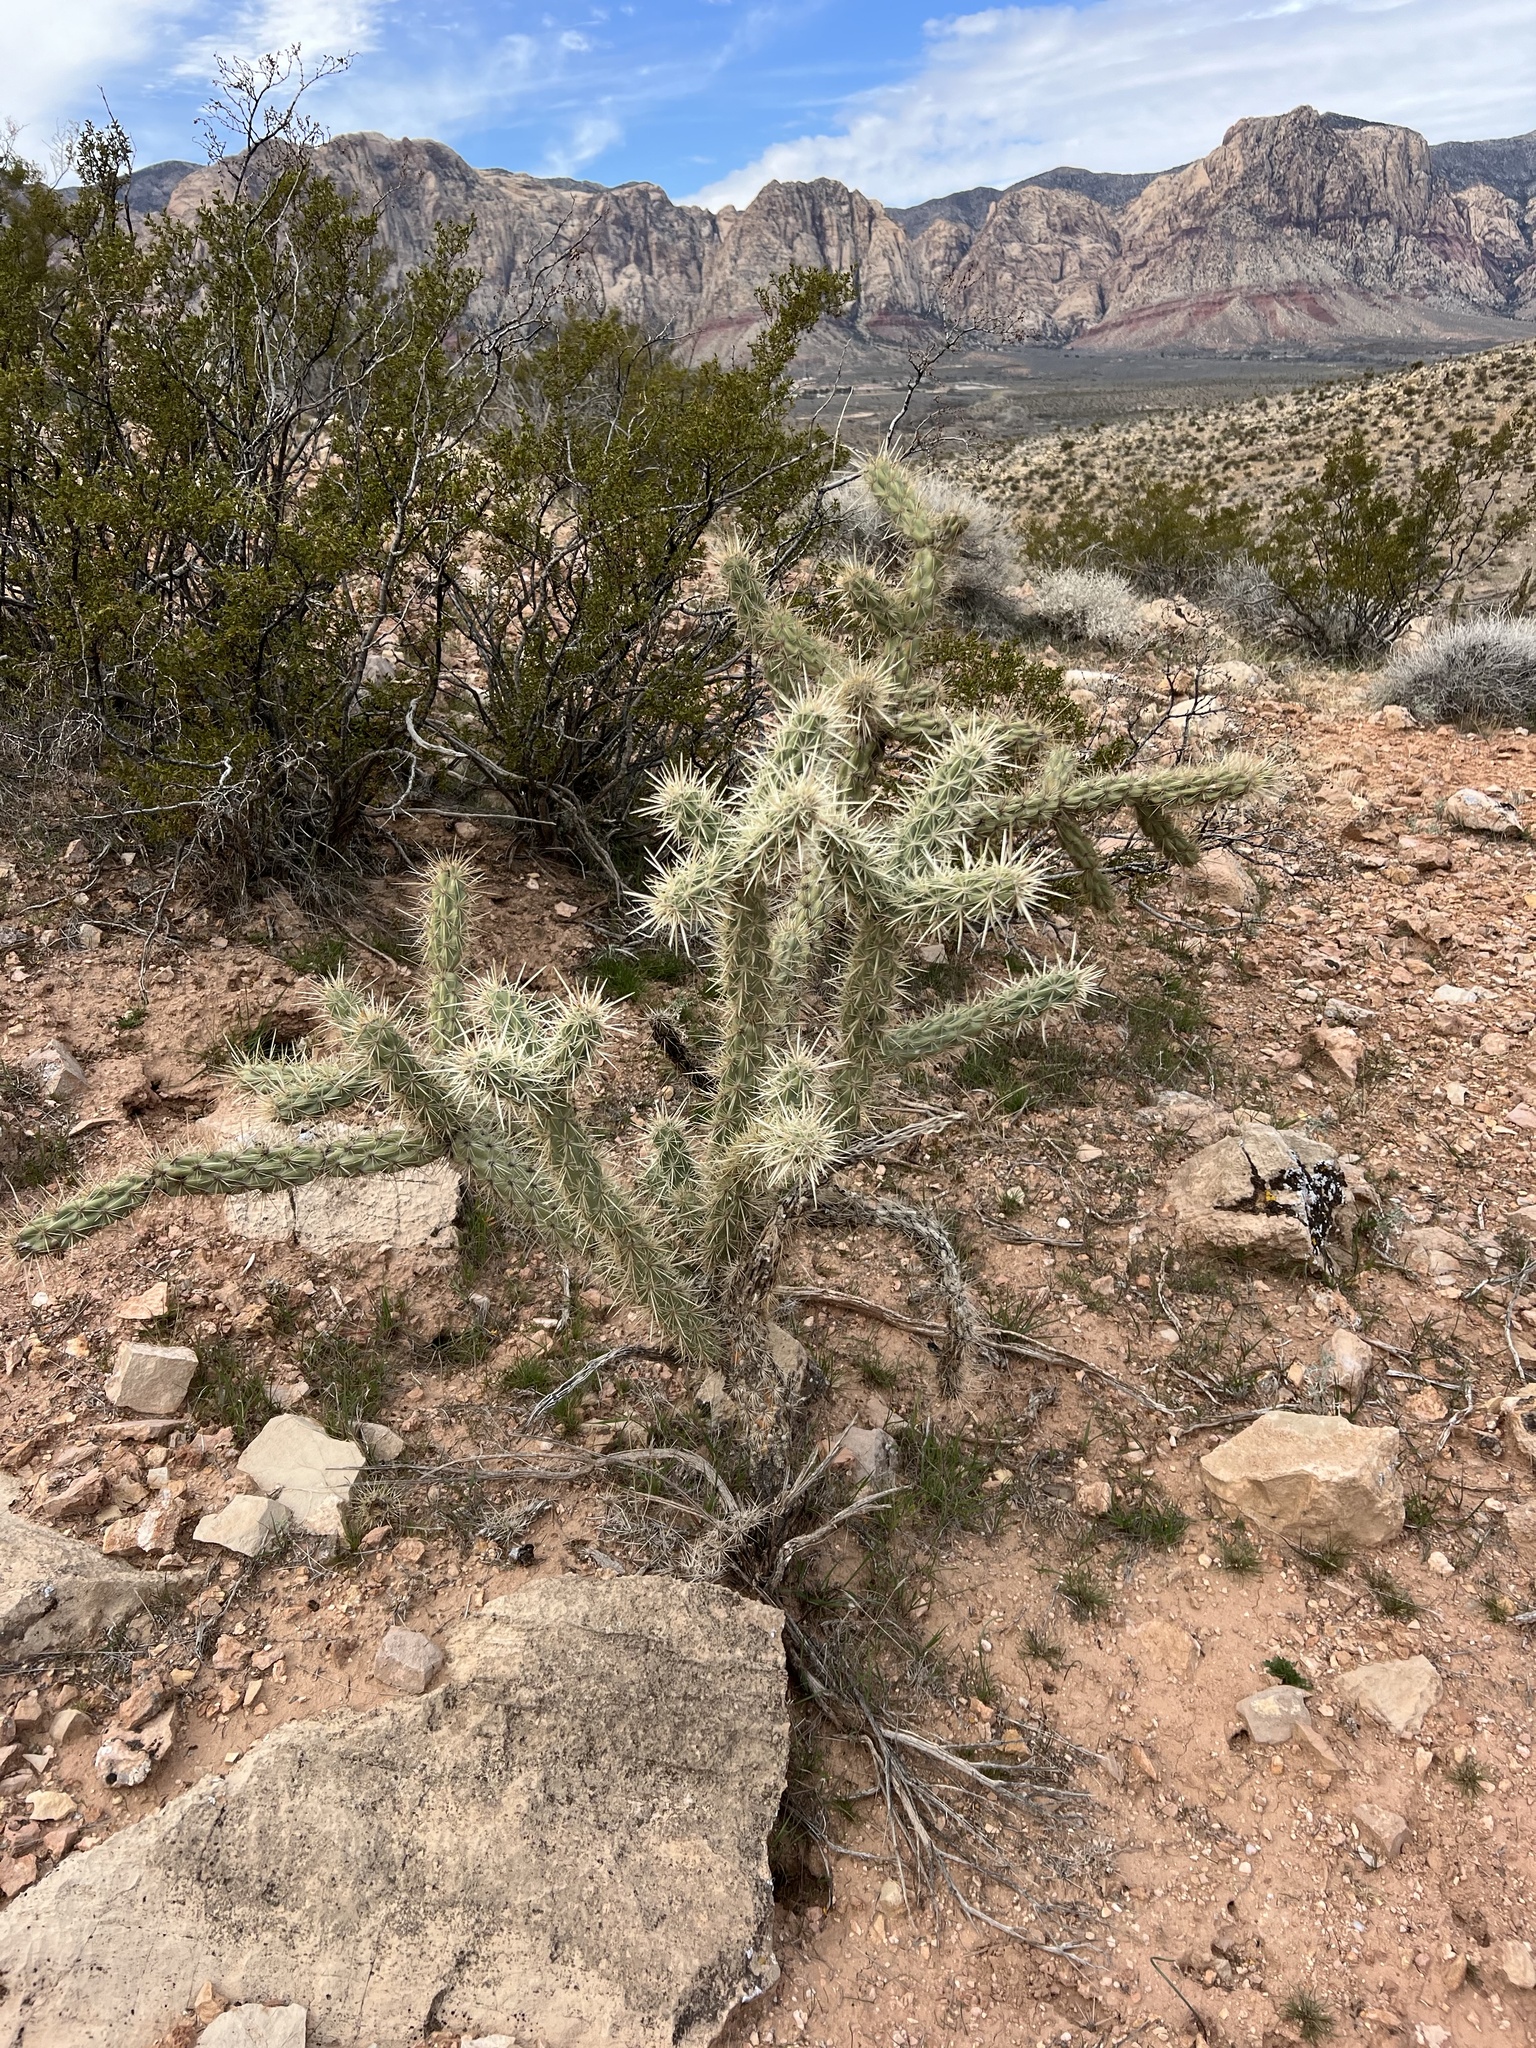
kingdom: Plantae
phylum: Tracheophyta
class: Magnoliopsida
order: Caryophyllales
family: Cactaceae
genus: Cylindropuntia
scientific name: Cylindropuntia acanthocarpa
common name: Buckhorn cholla
